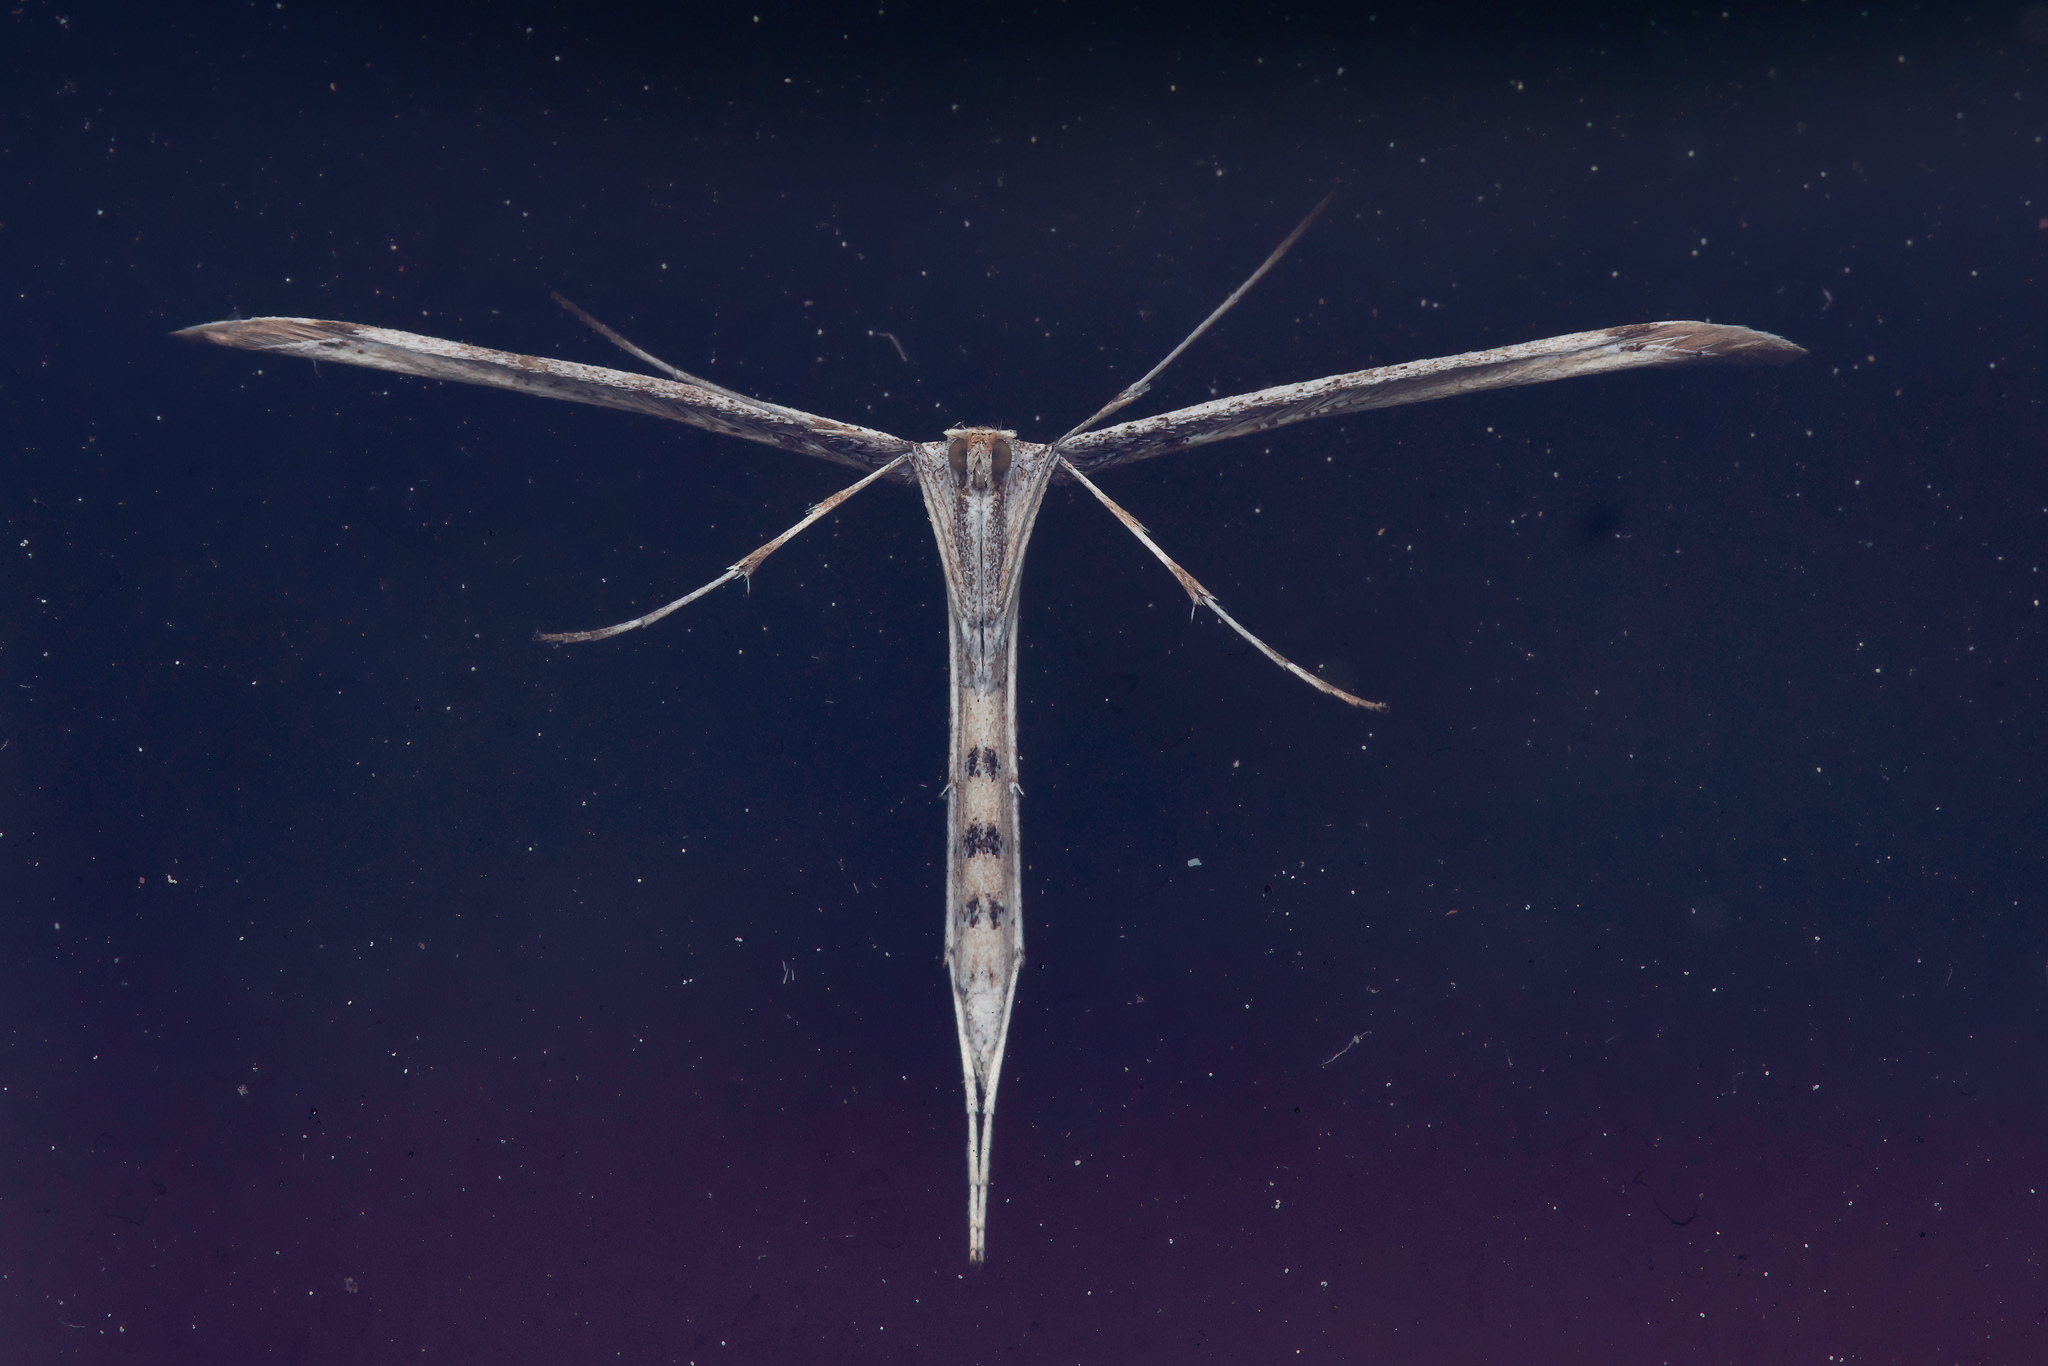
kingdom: Animalia
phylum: Arthropoda
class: Insecta
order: Lepidoptera
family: Pterophoridae
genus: Emmelina
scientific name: Emmelina monodactyla
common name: Common plume
